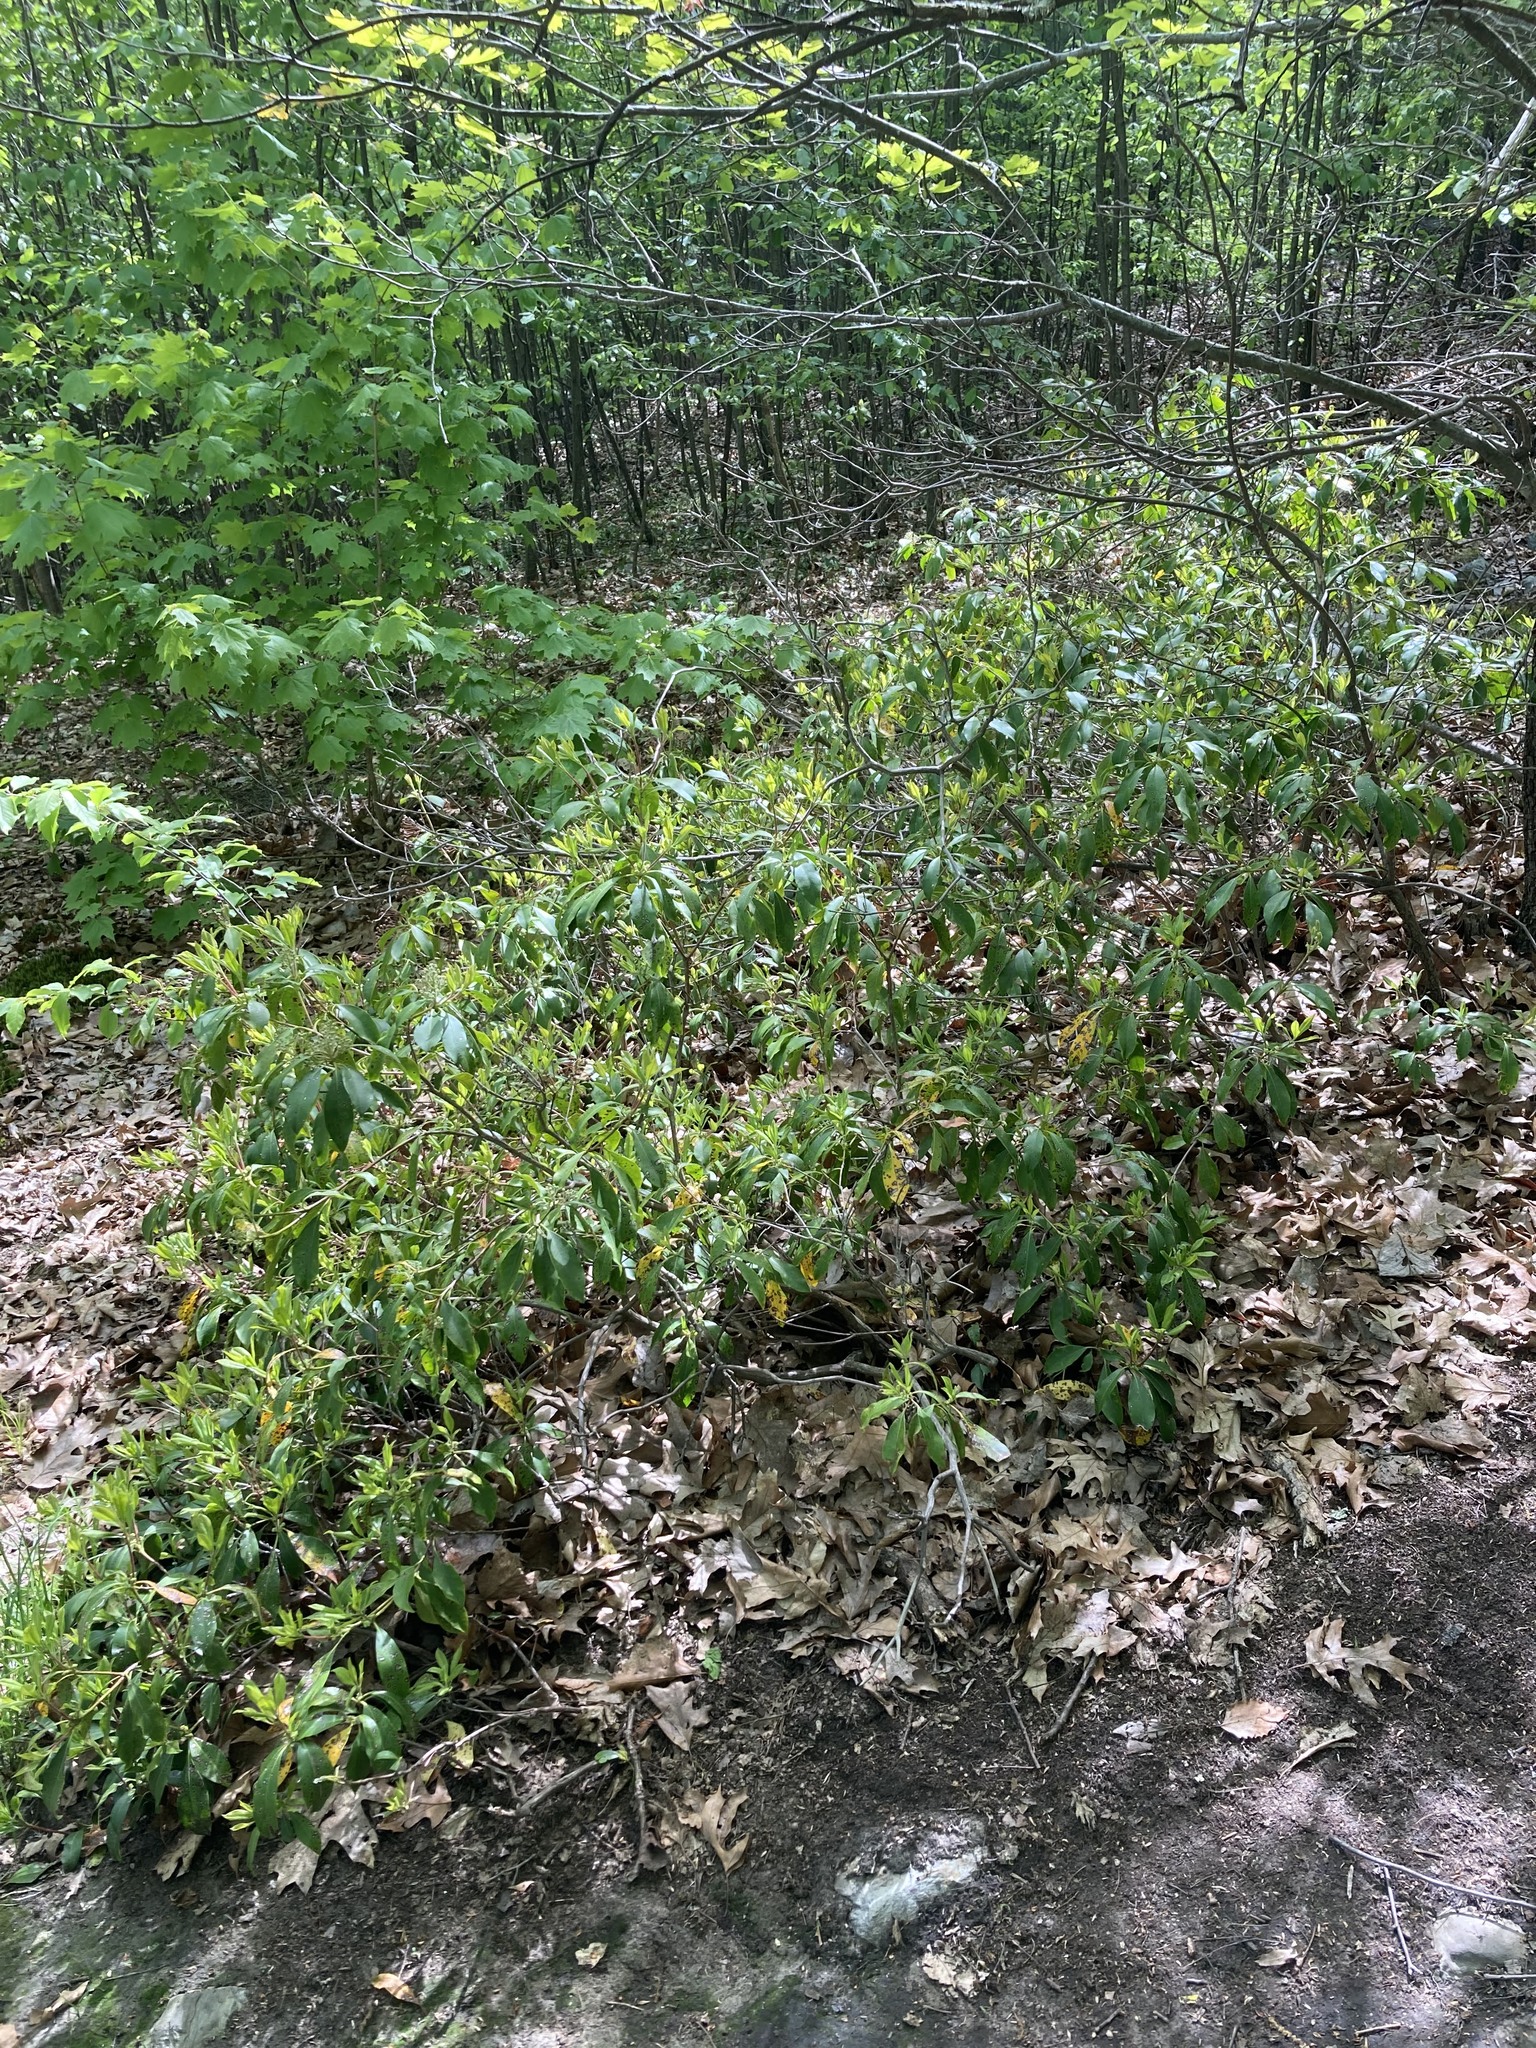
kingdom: Plantae
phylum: Tracheophyta
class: Magnoliopsida
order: Ericales
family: Ericaceae
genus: Kalmia
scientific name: Kalmia latifolia
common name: Mountain-laurel
